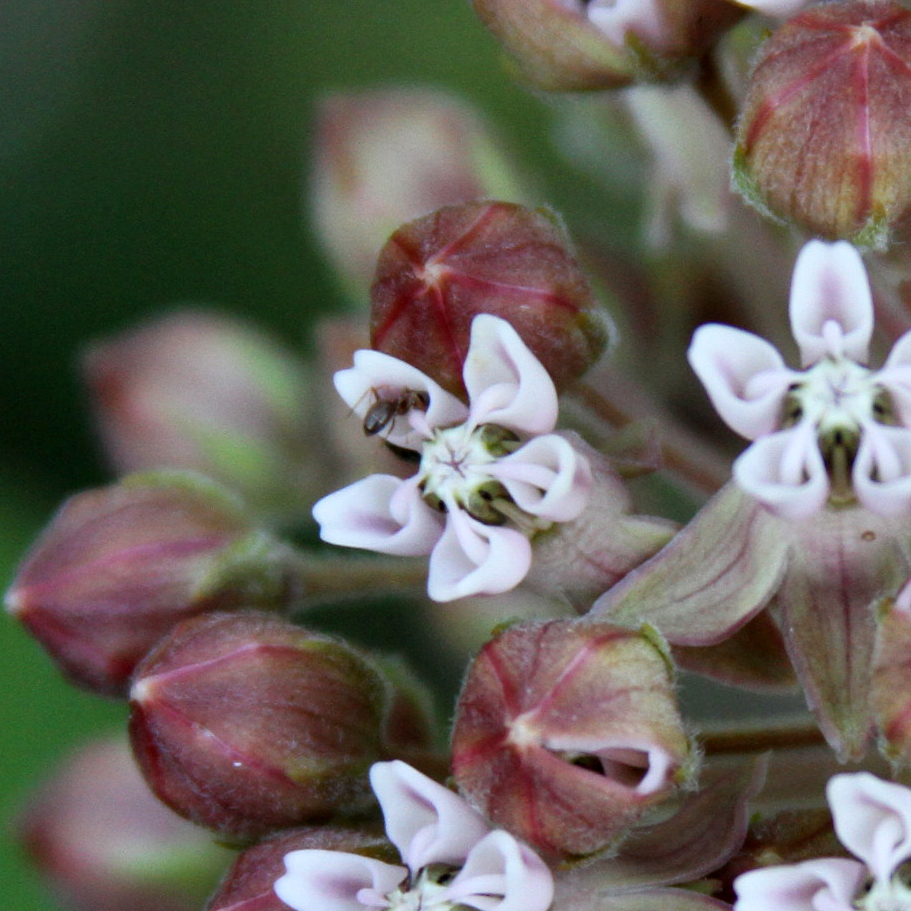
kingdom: Plantae
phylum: Tracheophyta
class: Magnoliopsida
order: Gentianales
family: Apocynaceae
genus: Asclepias
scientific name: Asclepias syriaca
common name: Common milkweed
